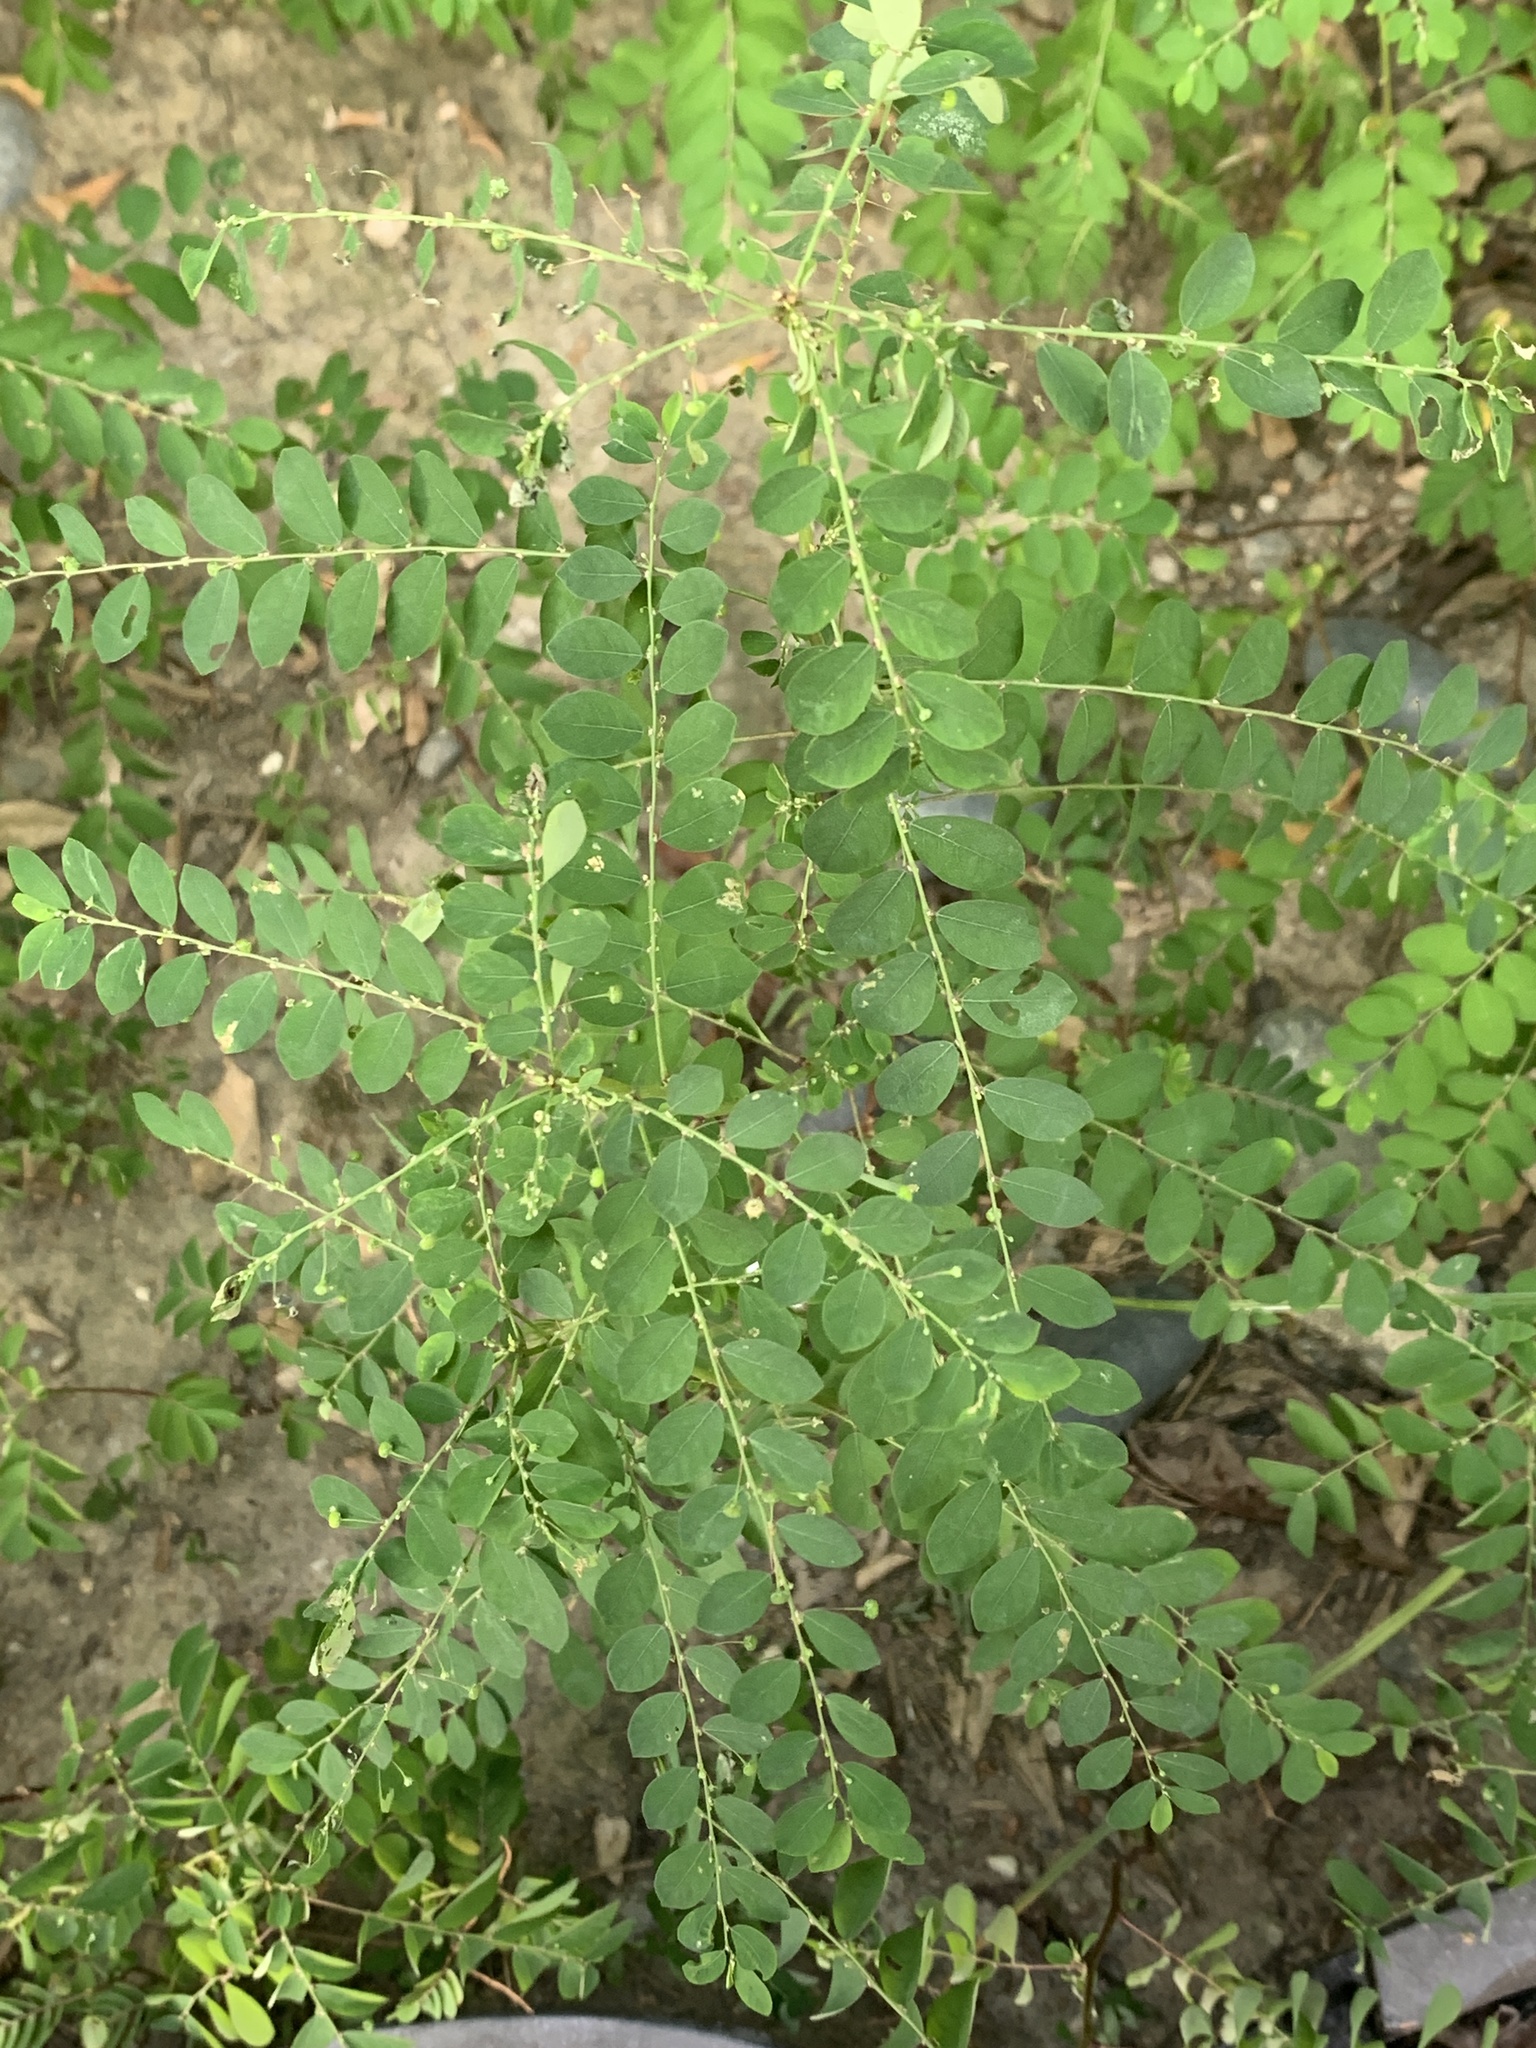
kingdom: Plantae
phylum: Tracheophyta
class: Magnoliopsida
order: Malpighiales
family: Phyllanthaceae
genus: Phyllanthus
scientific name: Phyllanthus tenellus
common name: Mascarene island leaf-flower
